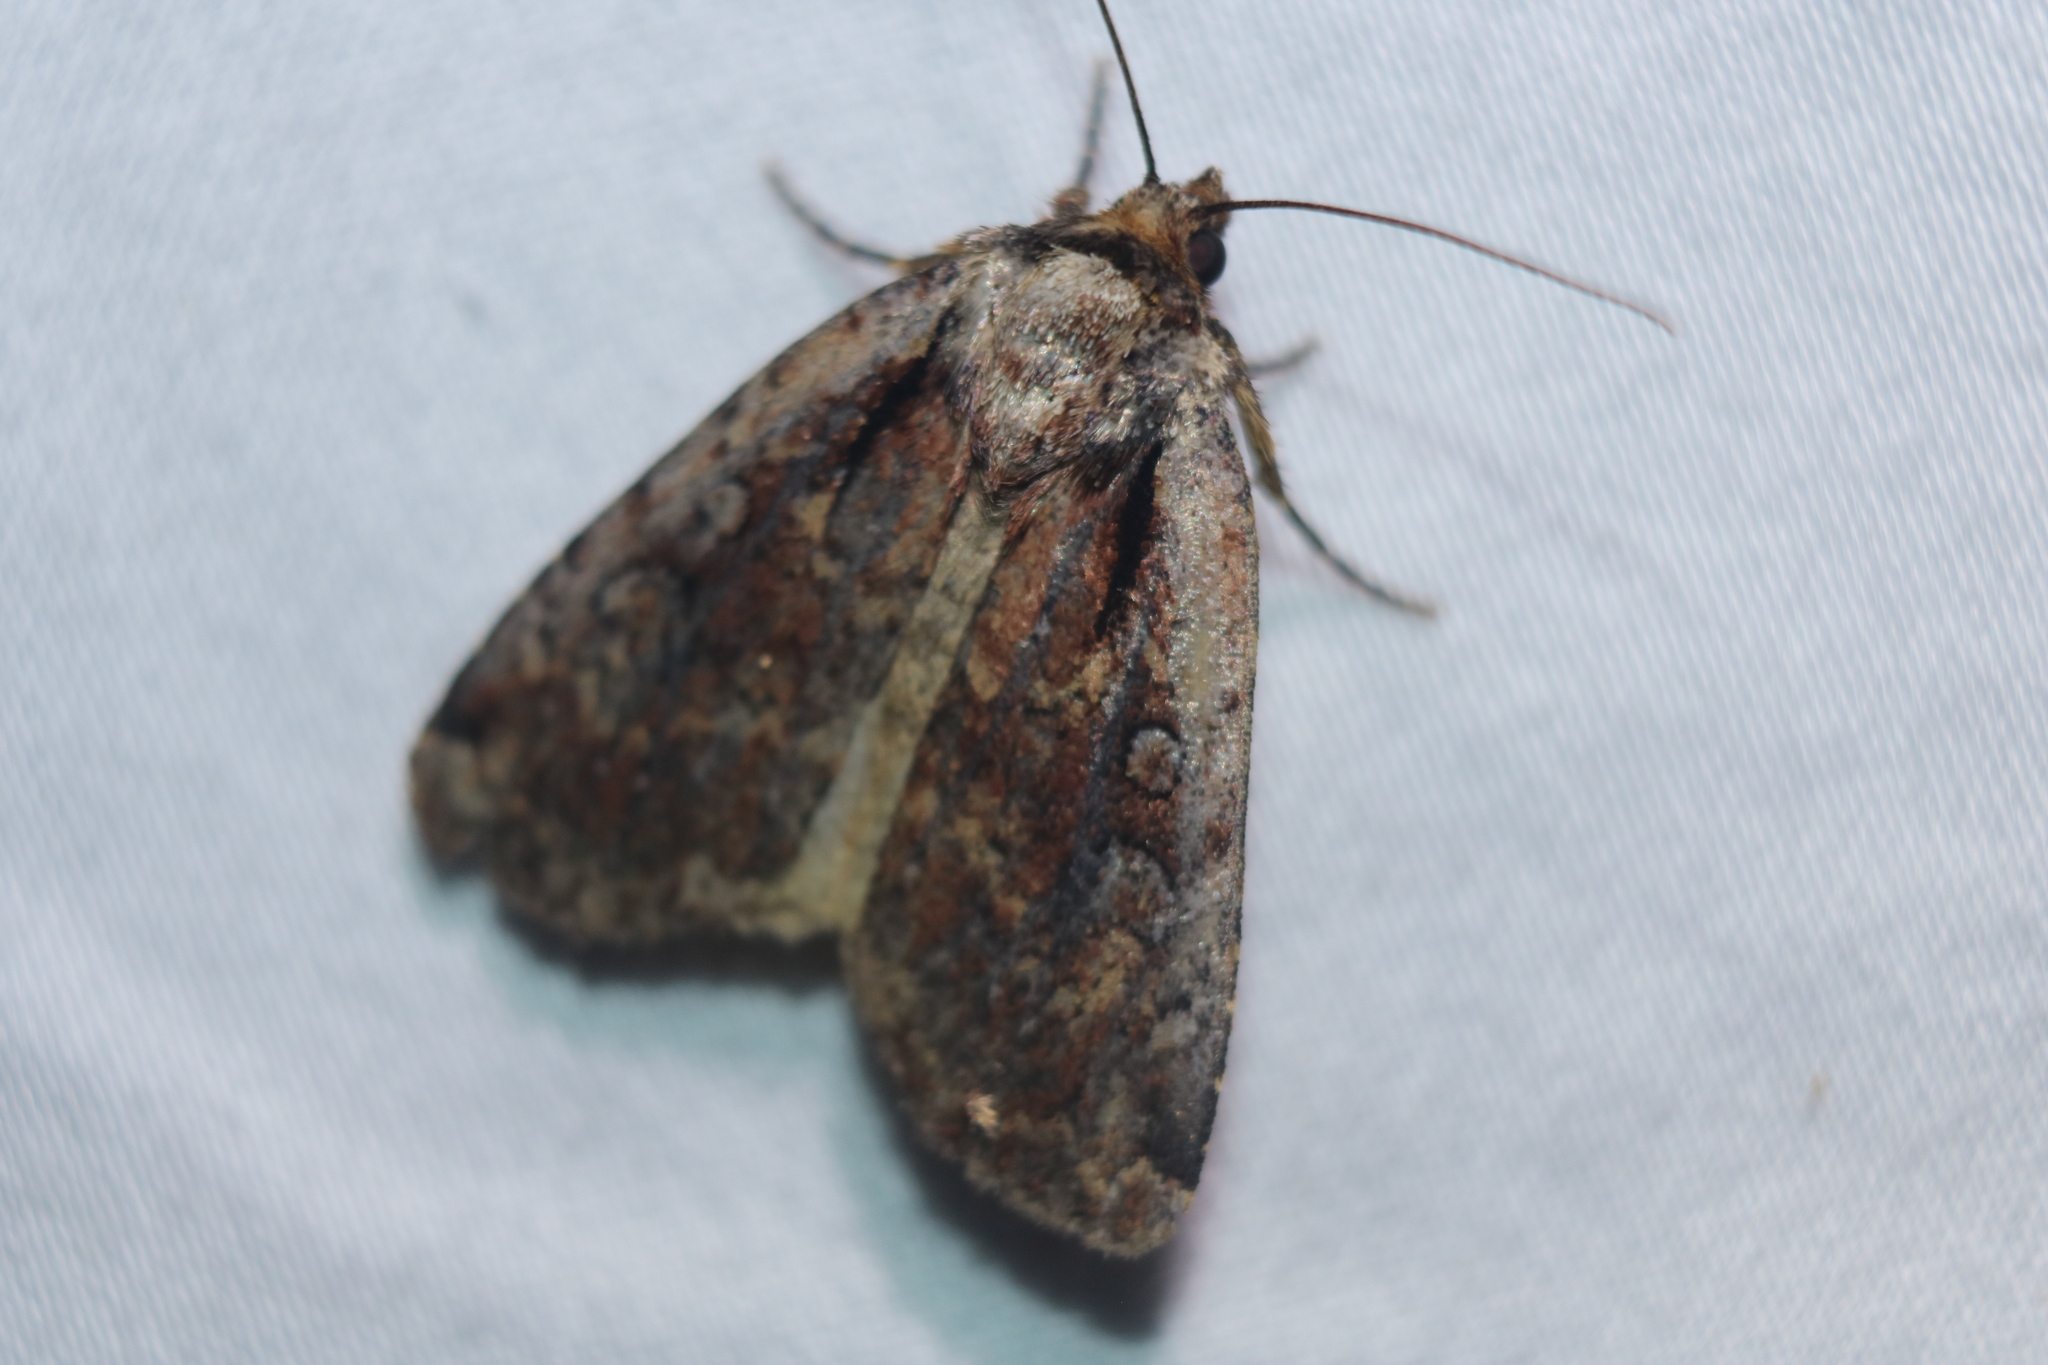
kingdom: Animalia
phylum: Arthropoda
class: Insecta
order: Lepidoptera
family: Noctuidae
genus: Eueretagrotis
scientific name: Eueretagrotis attentus
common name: Attentive dart
